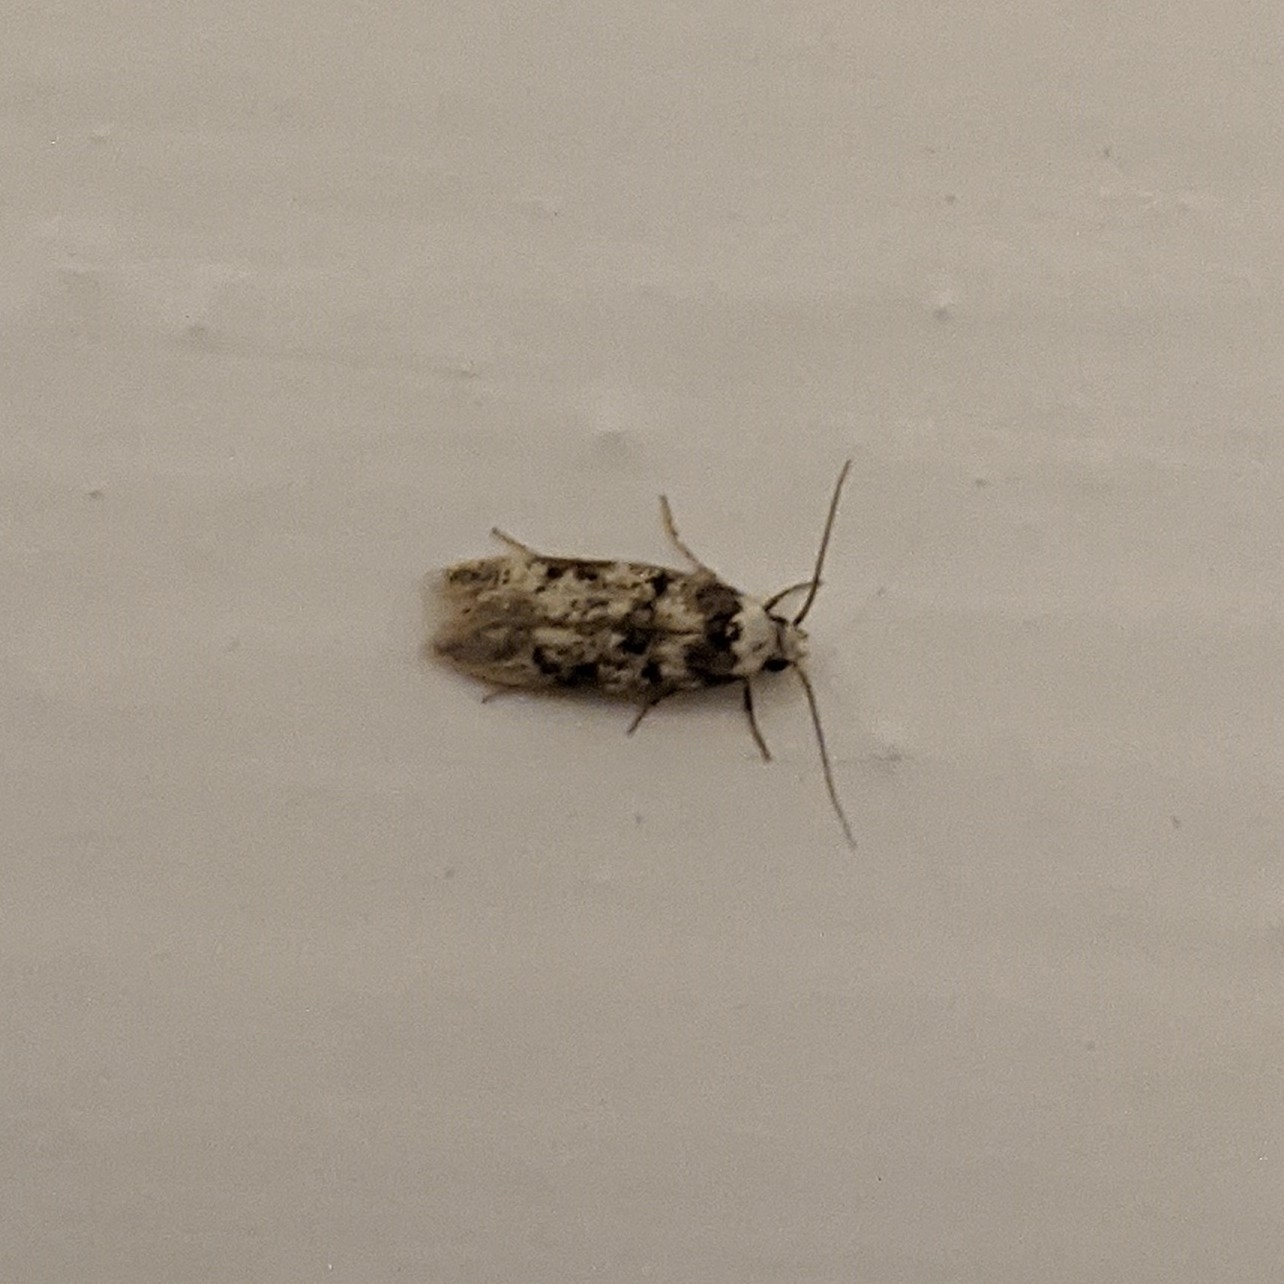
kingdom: Animalia
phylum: Arthropoda
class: Insecta
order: Lepidoptera
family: Oecophoridae
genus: Endrosis
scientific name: Endrosis sarcitrella
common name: White-shouldered house moth
